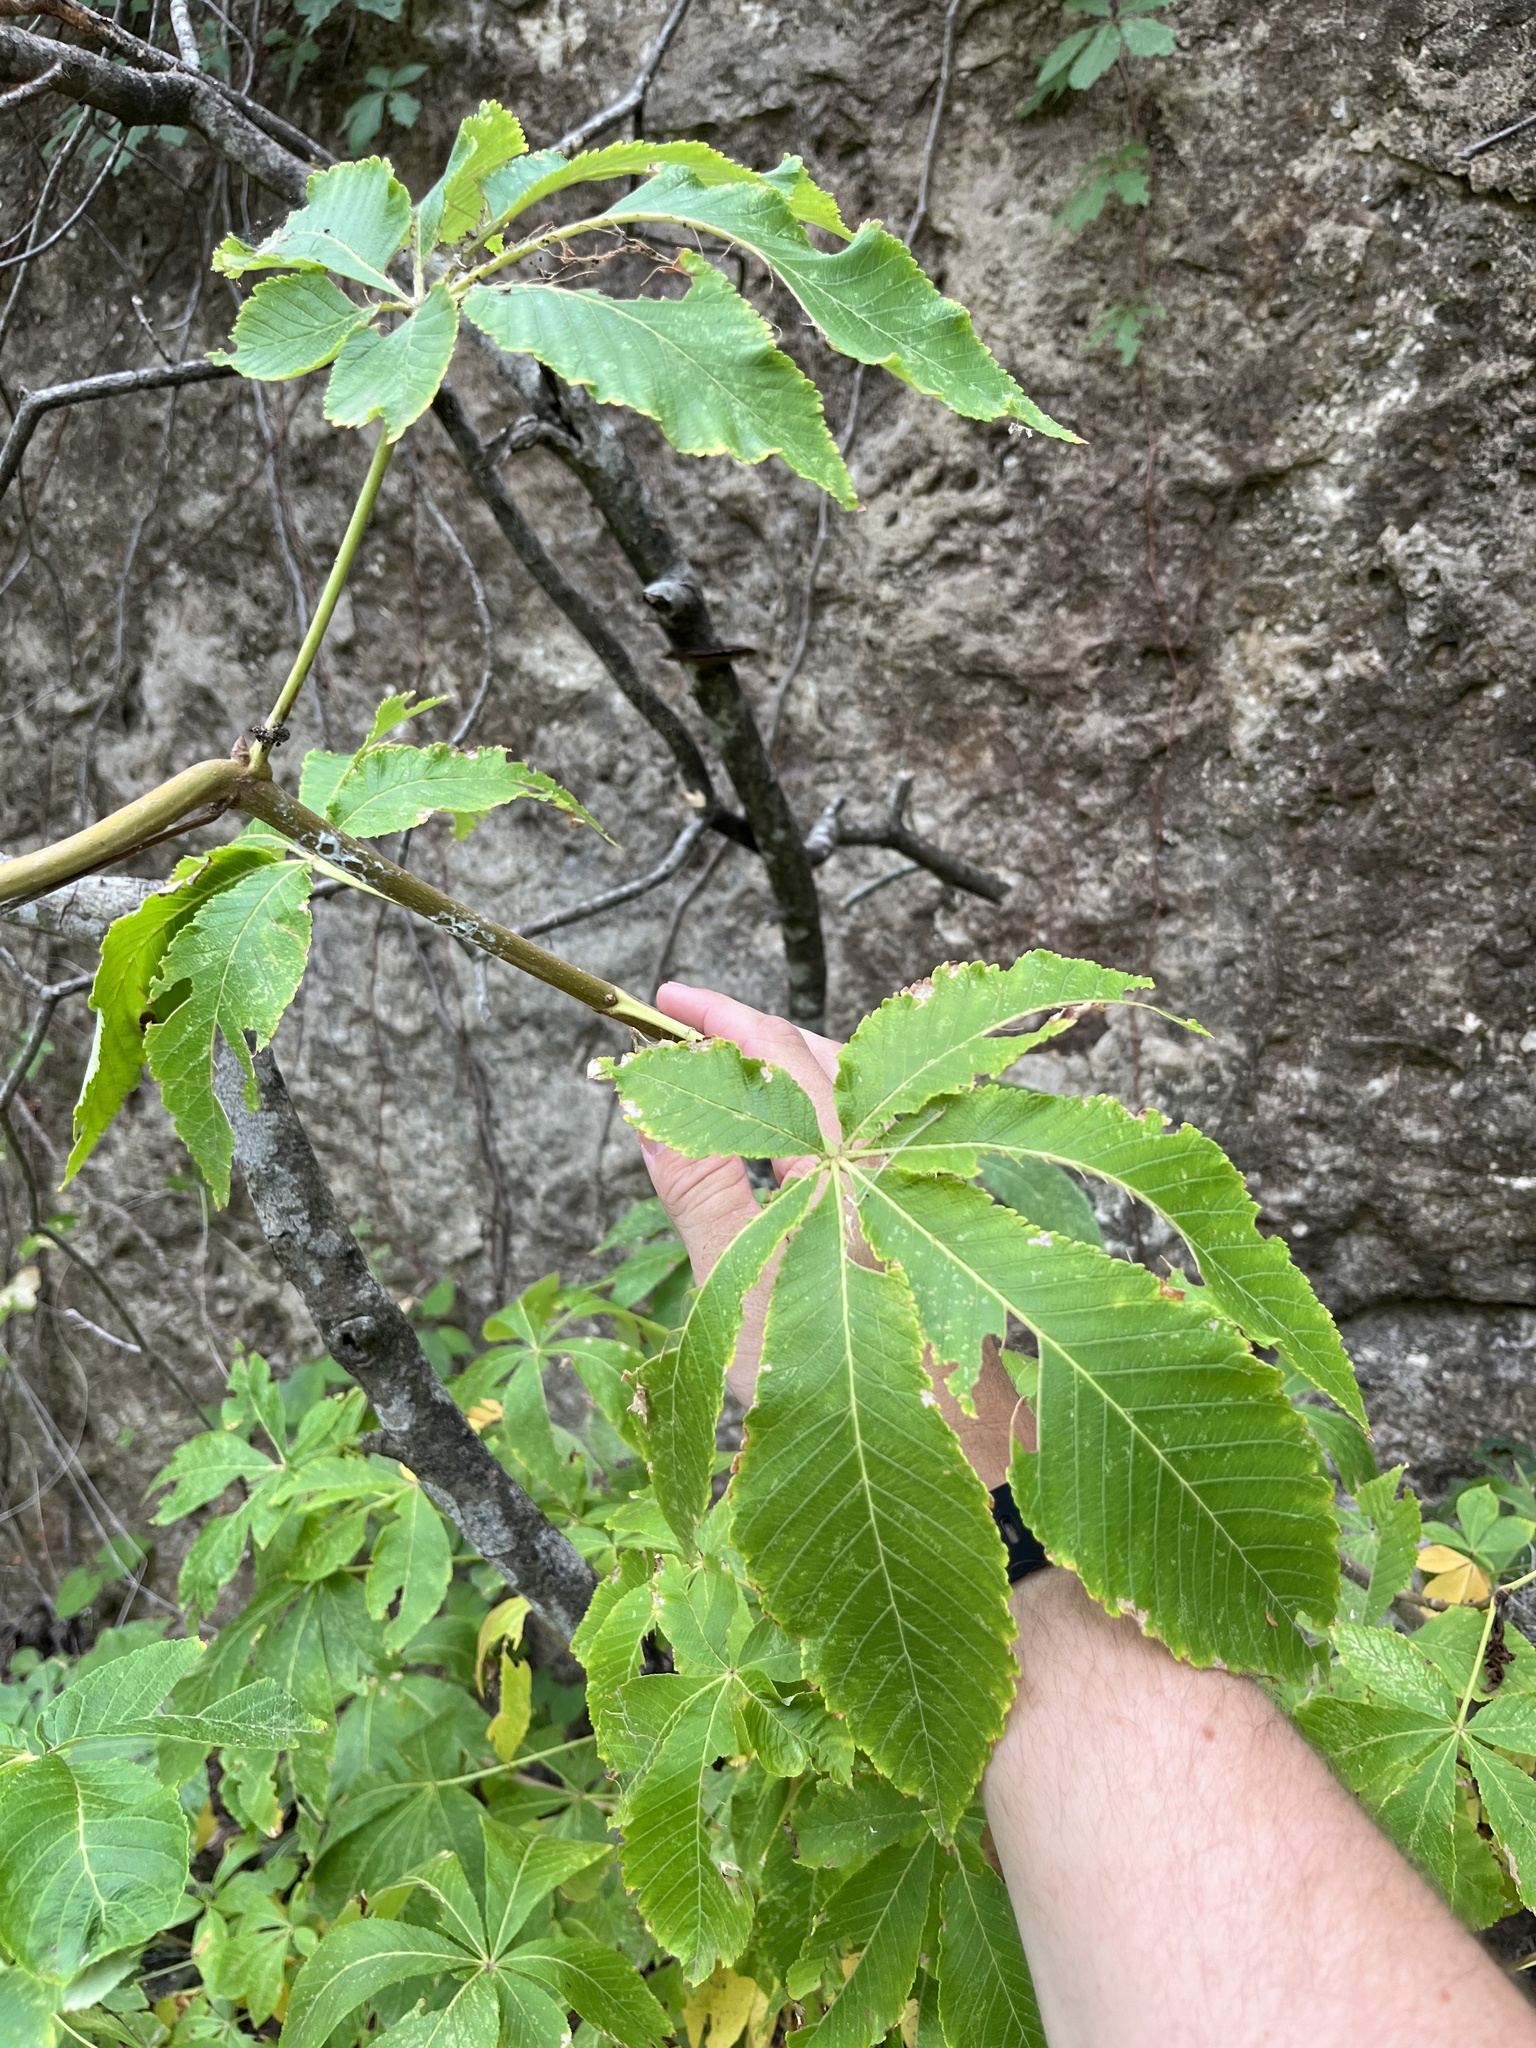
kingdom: Plantae
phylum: Tracheophyta
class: Magnoliopsida
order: Sapindales
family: Sapindaceae
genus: Aesculus
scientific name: Aesculus pavia
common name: Red buckeye
